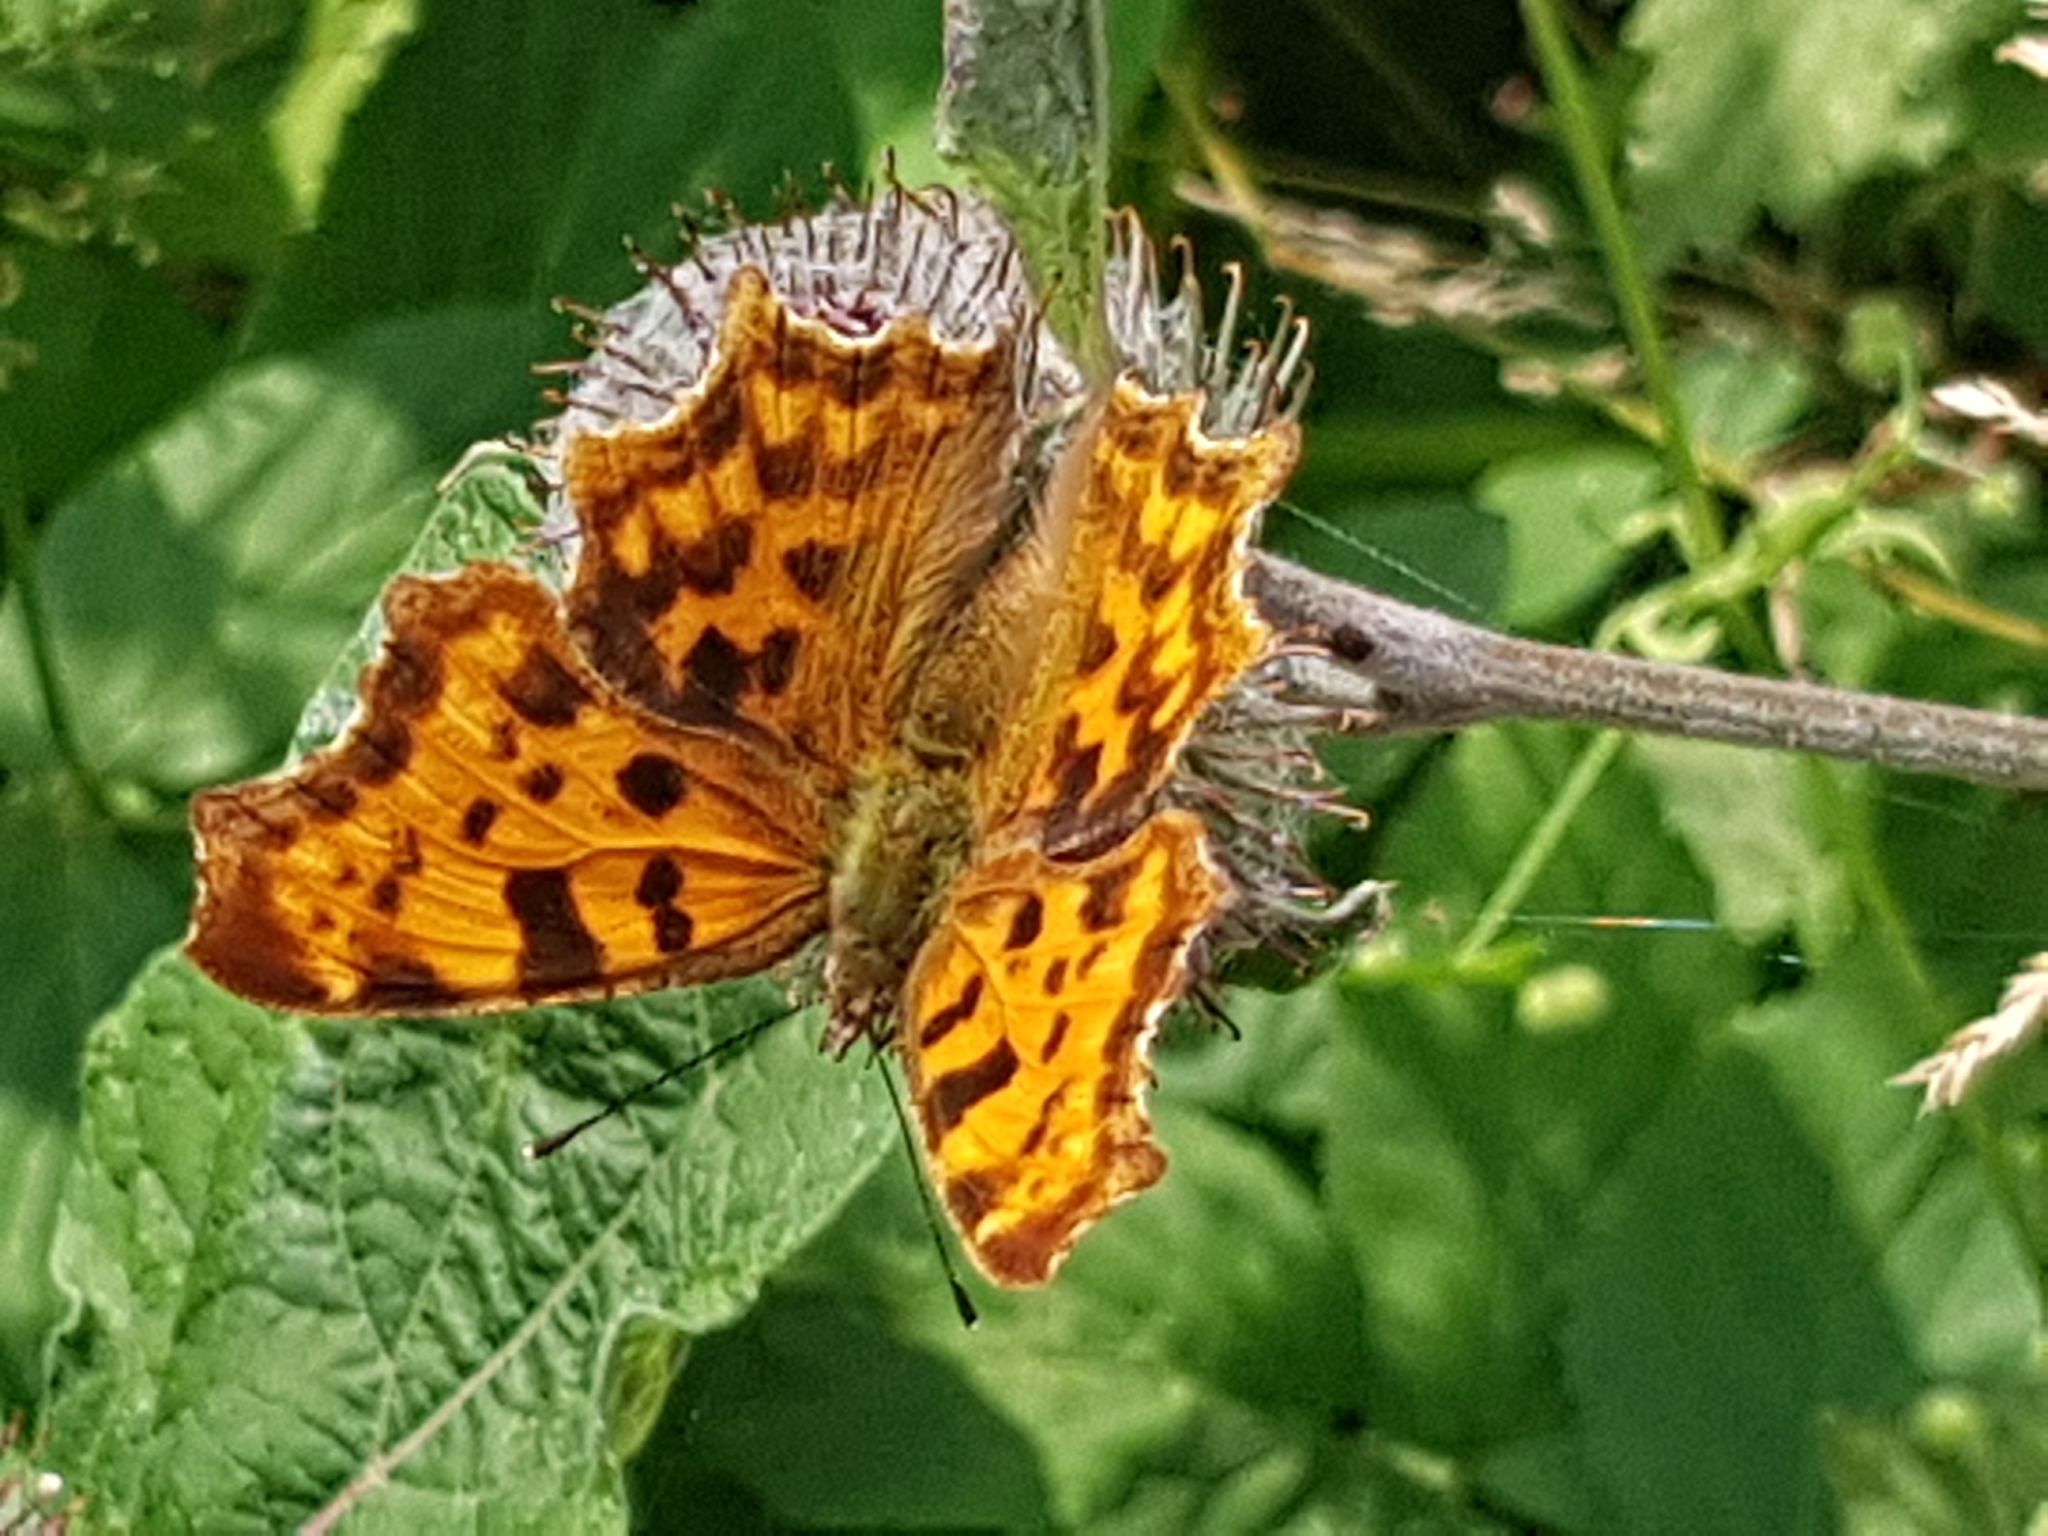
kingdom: Animalia
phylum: Arthropoda
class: Insecta
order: Lepidoptera
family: Nymphalidae
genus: Polygonia
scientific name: Polygonia c-album
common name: Comma
